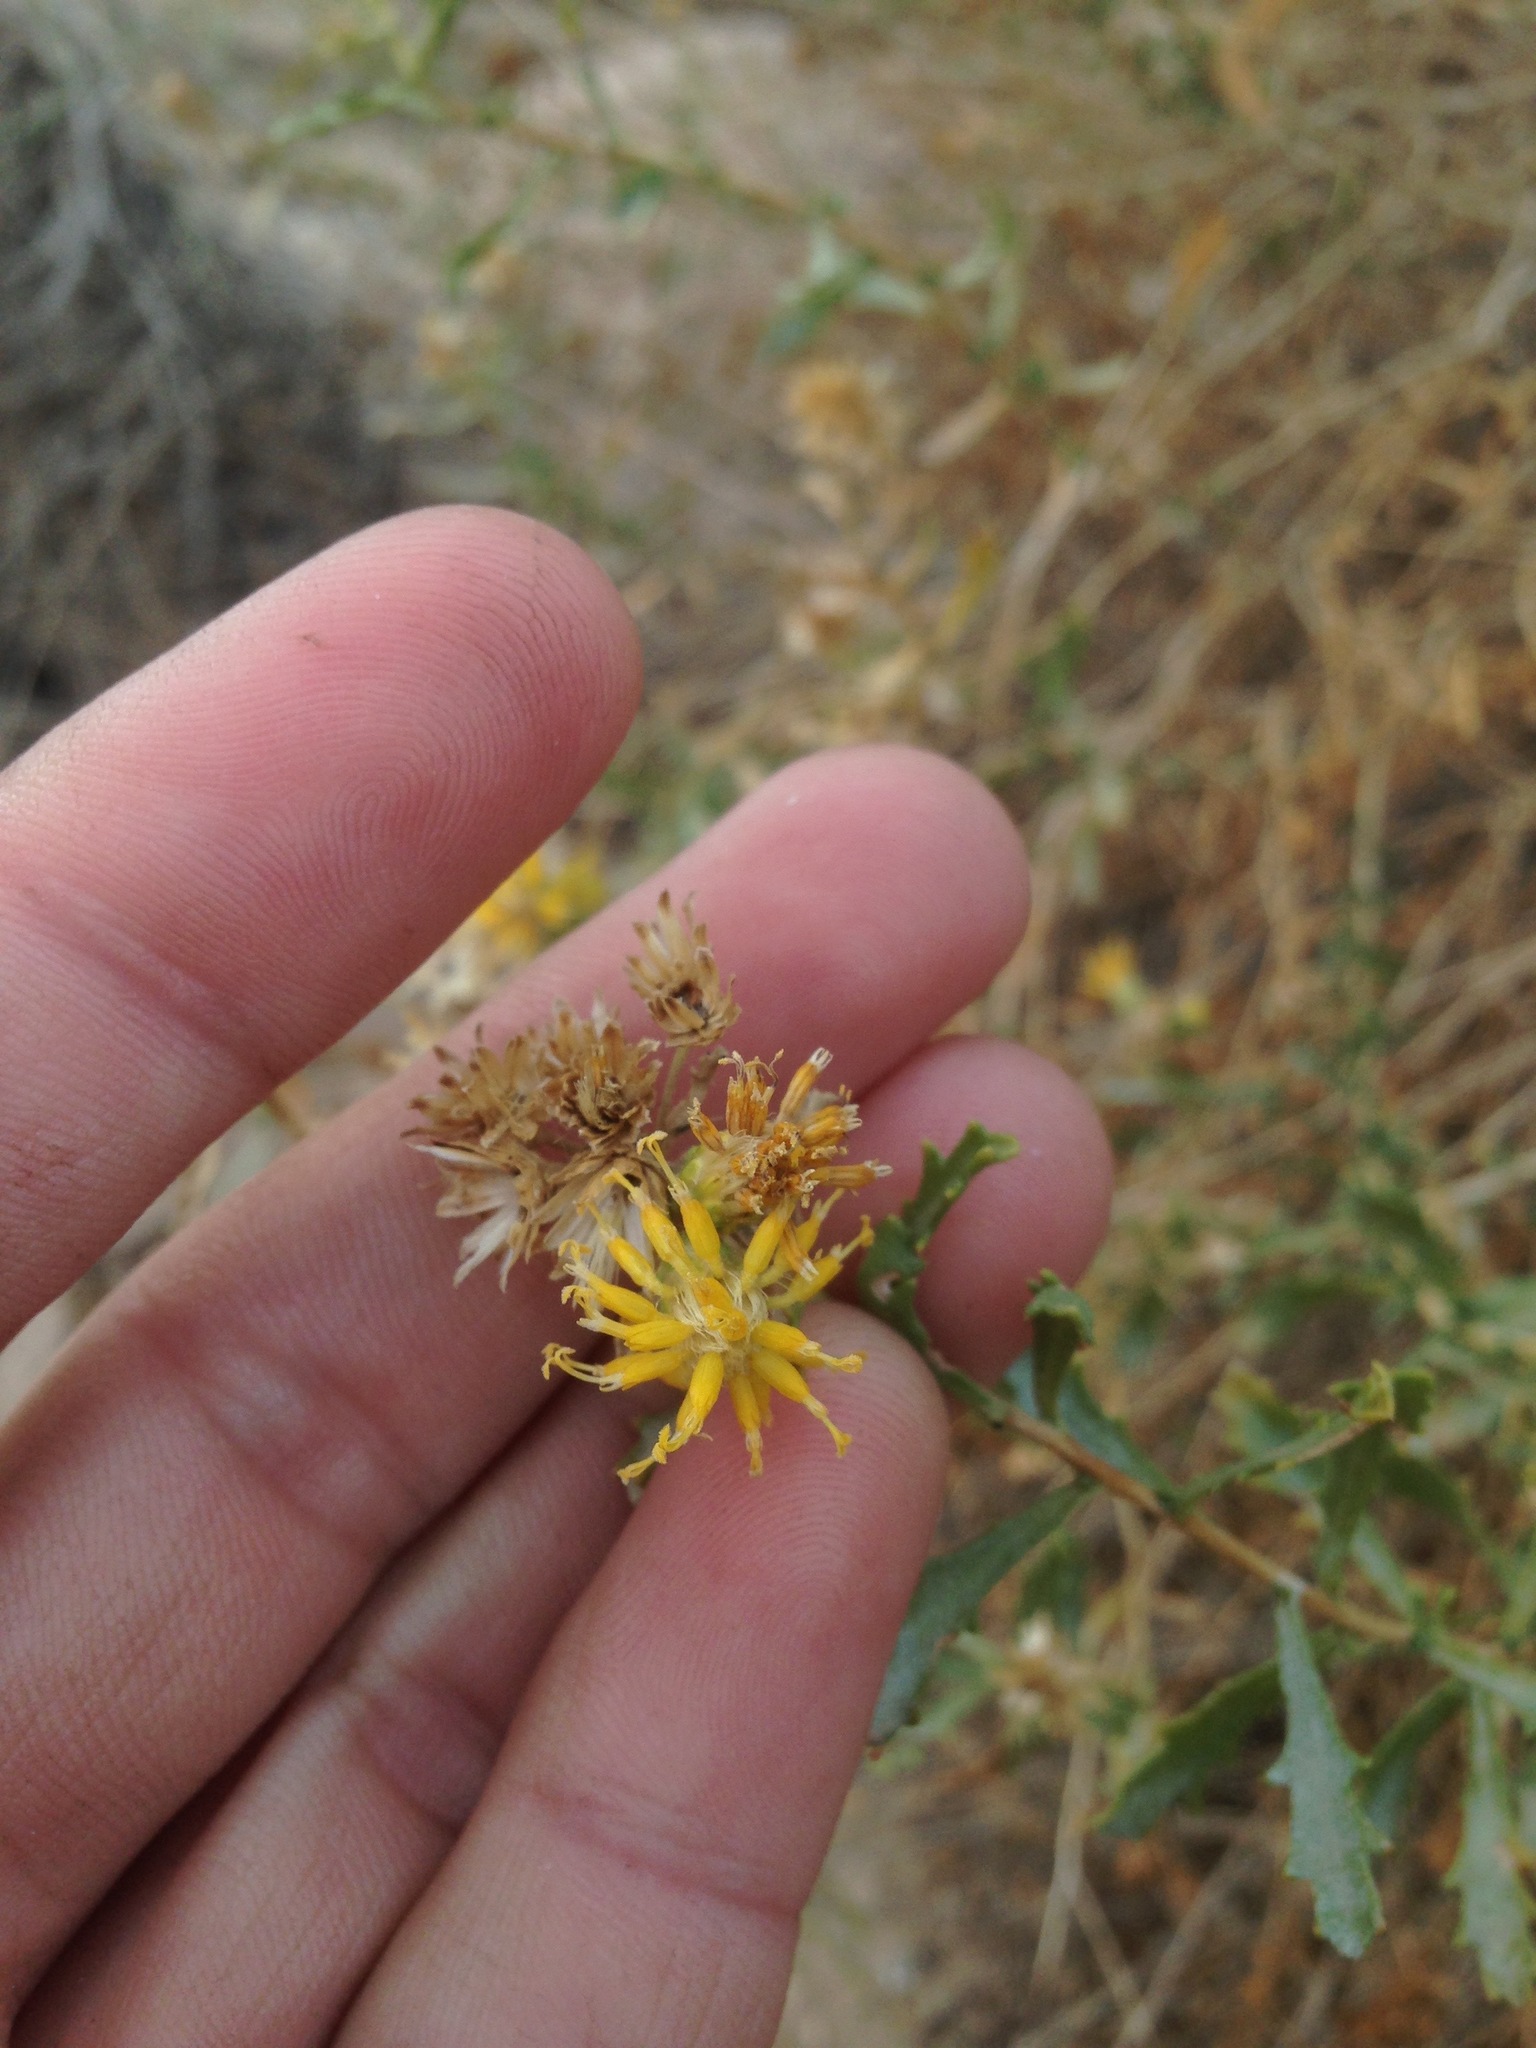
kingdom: Plantae
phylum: Tracheophyta
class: Magnoliopsida
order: Asterales
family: Asteraceae
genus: Isocoma
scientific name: Isocoma acradenia
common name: Alkali jimmyweed
